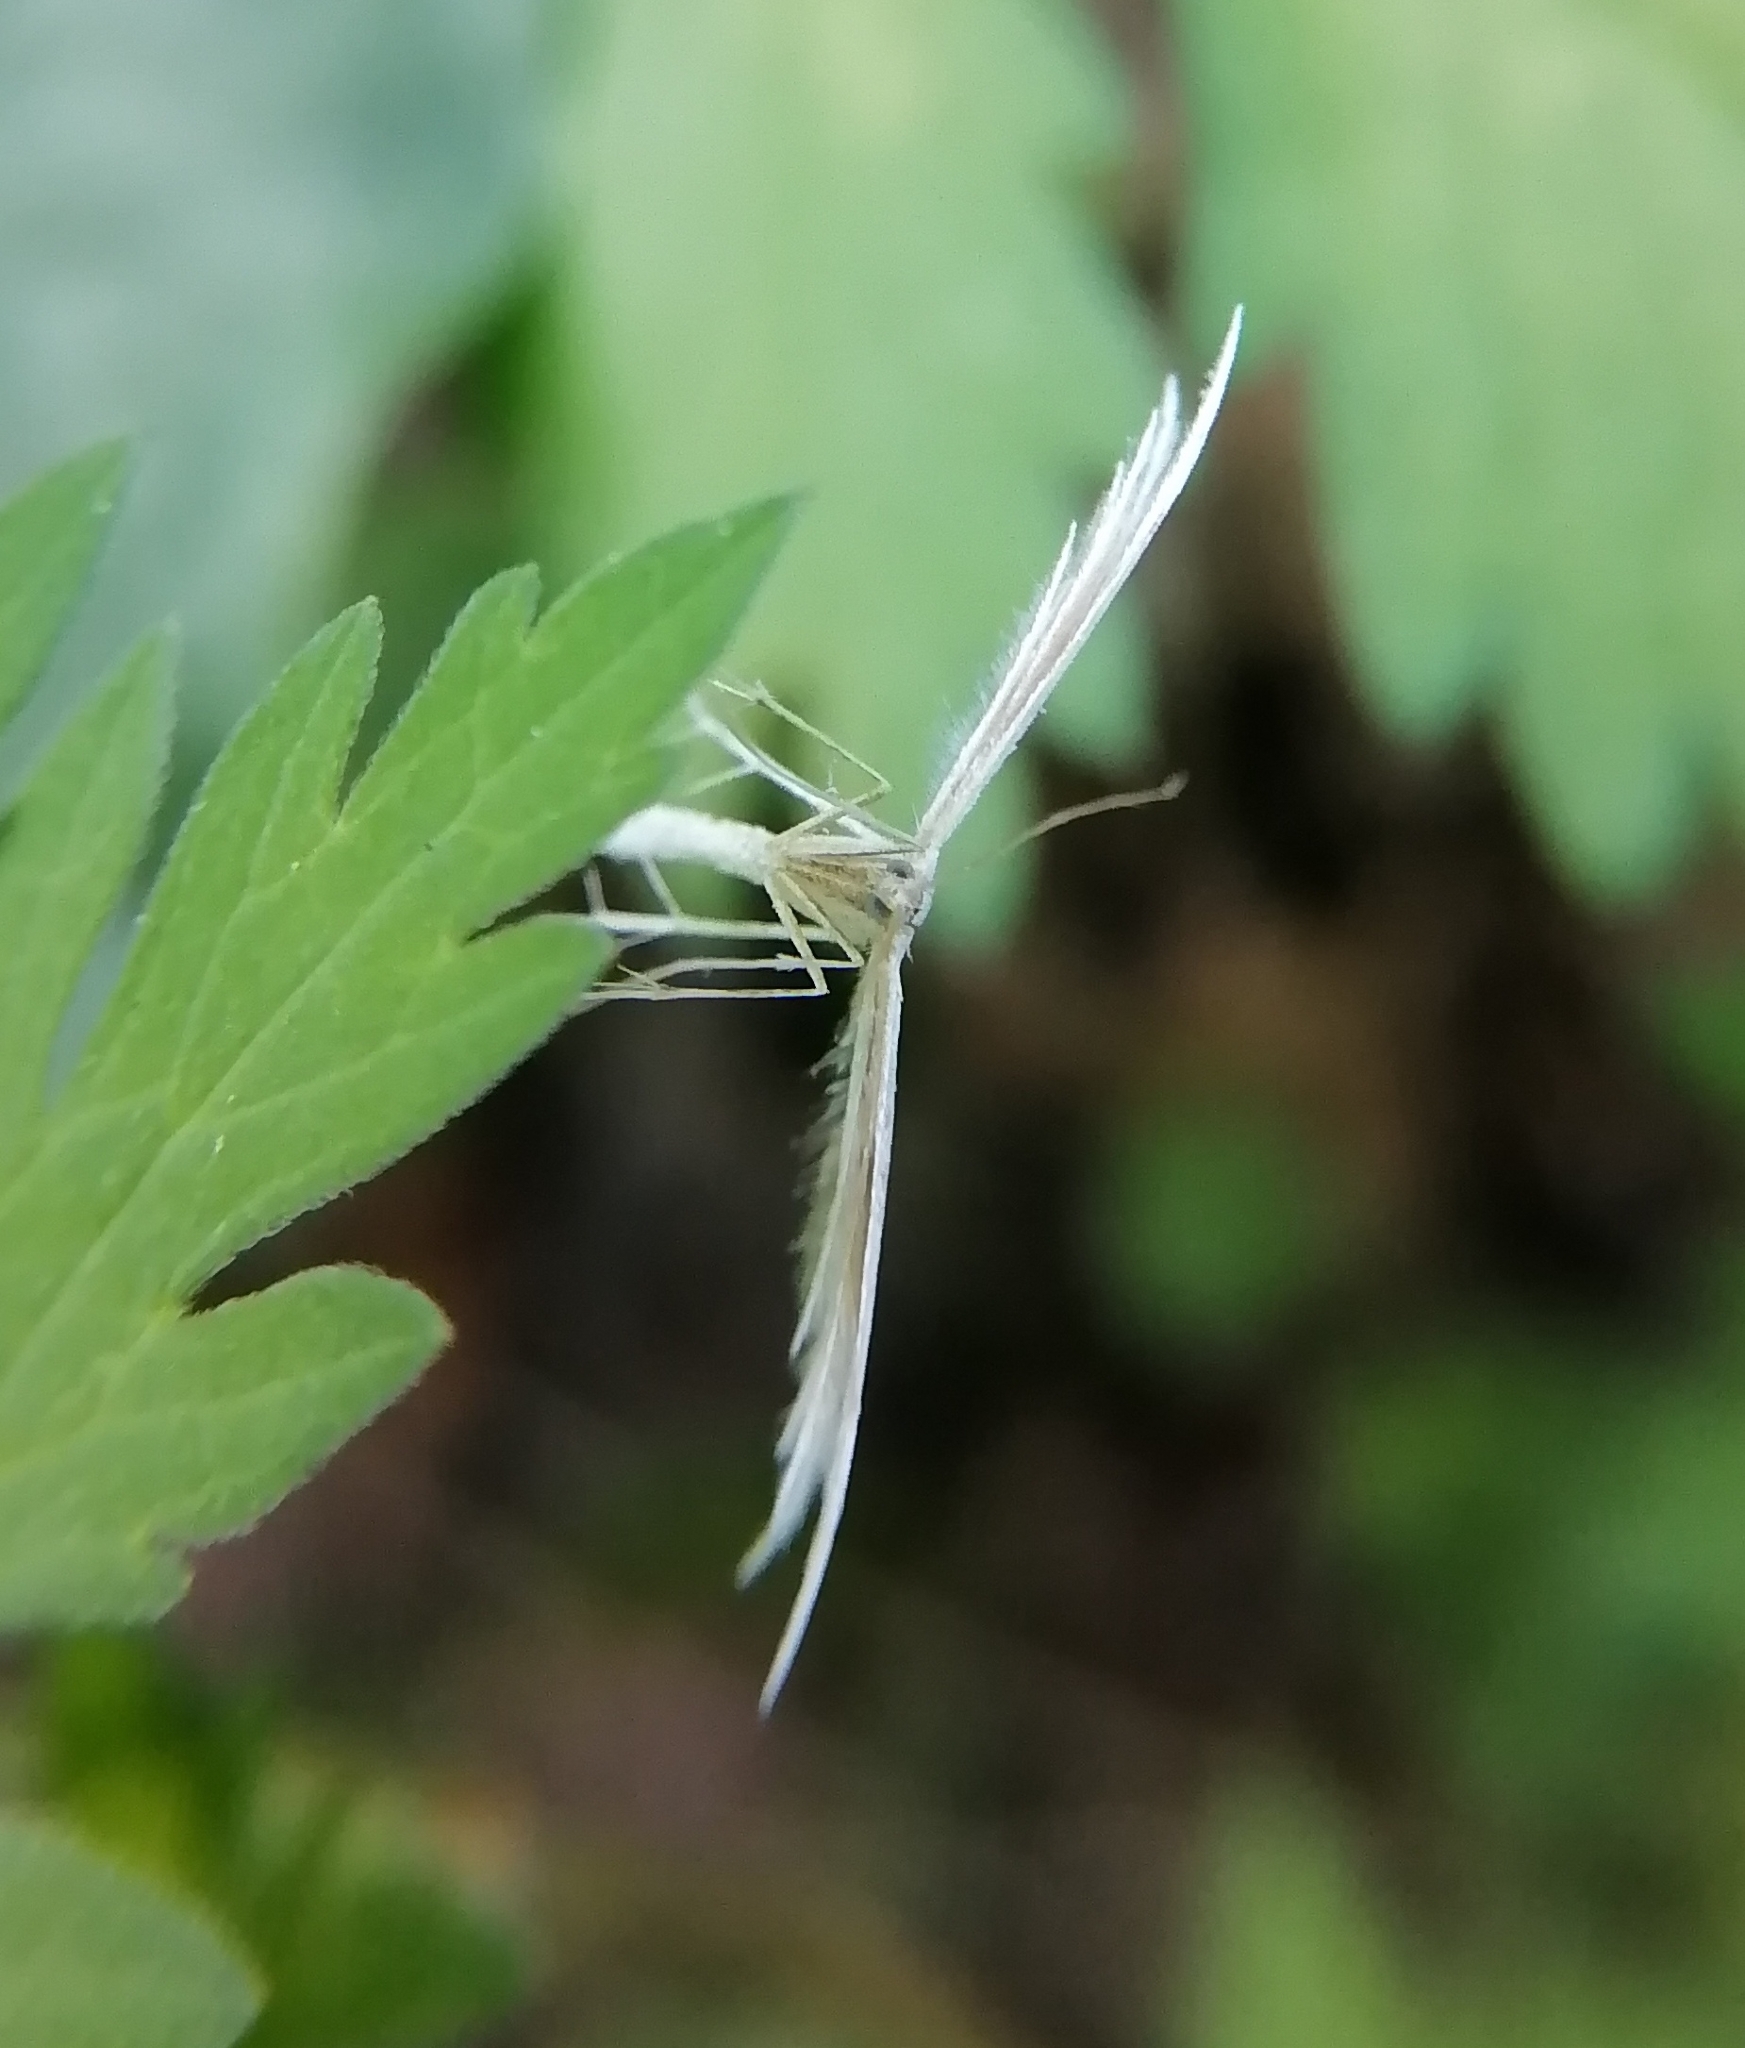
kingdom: Animalia
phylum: Arthropoda
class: Insecta
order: Lepidoptera
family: Pterophoridae
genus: Pterophorus
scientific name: Pterophorus pentadactyla
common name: White plume moth
